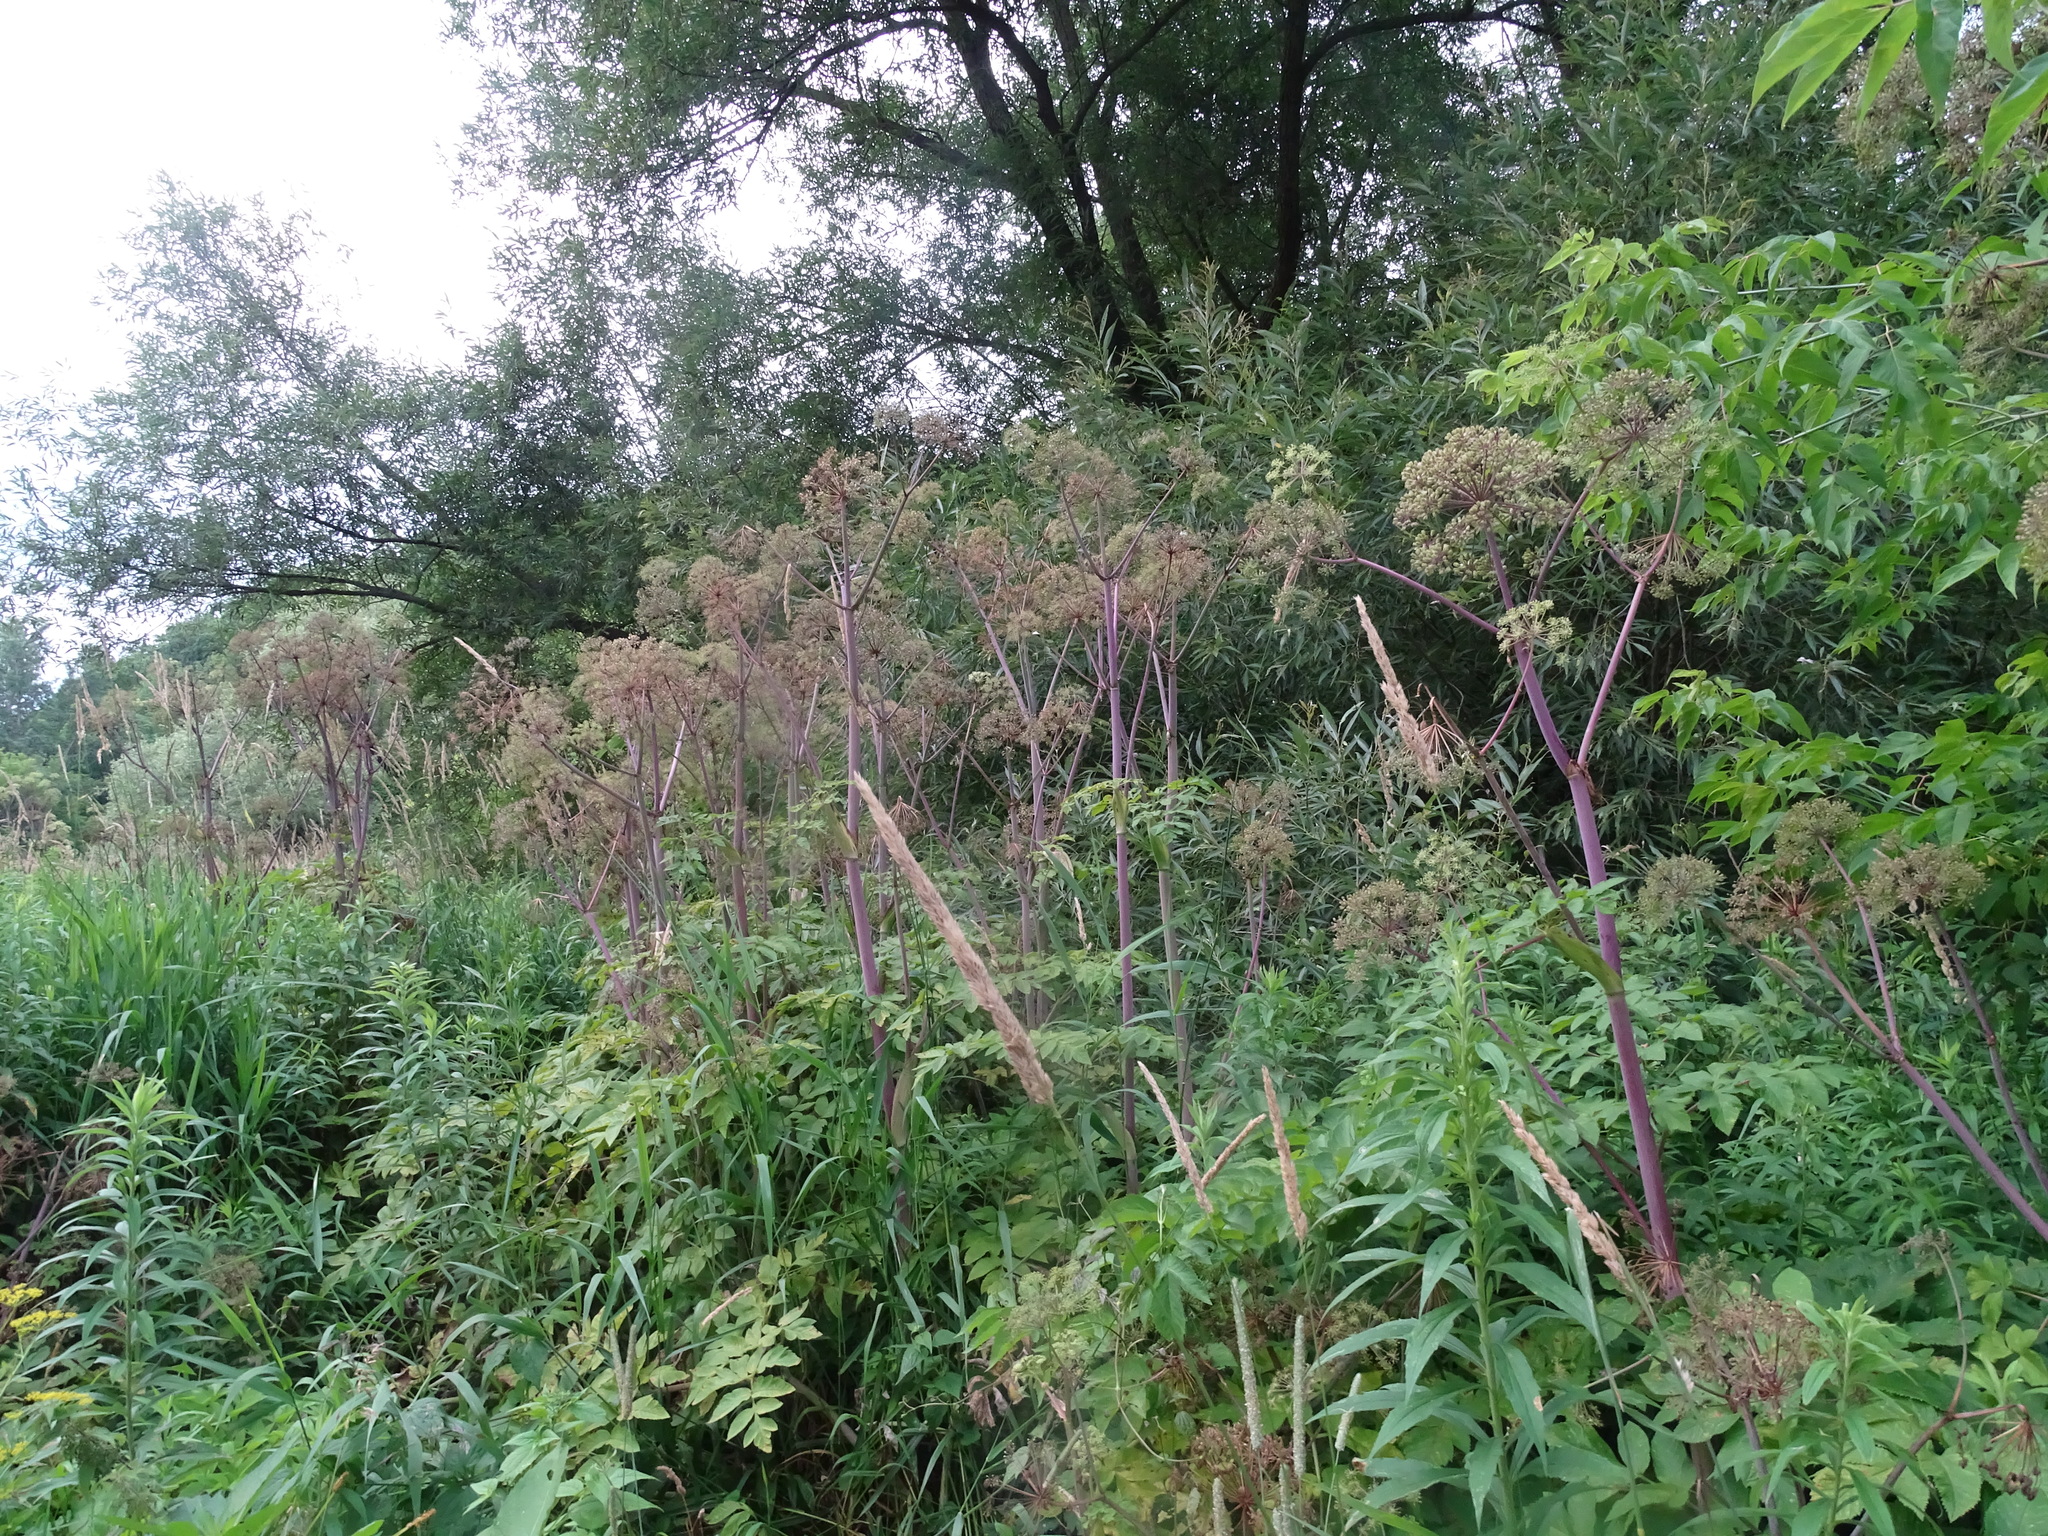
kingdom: Plantae
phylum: Tracheophyta
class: Magnoliopsida
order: Apiales
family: Apiaceae
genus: Angelica
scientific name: Angelica atropurpurea
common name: Great angelica
